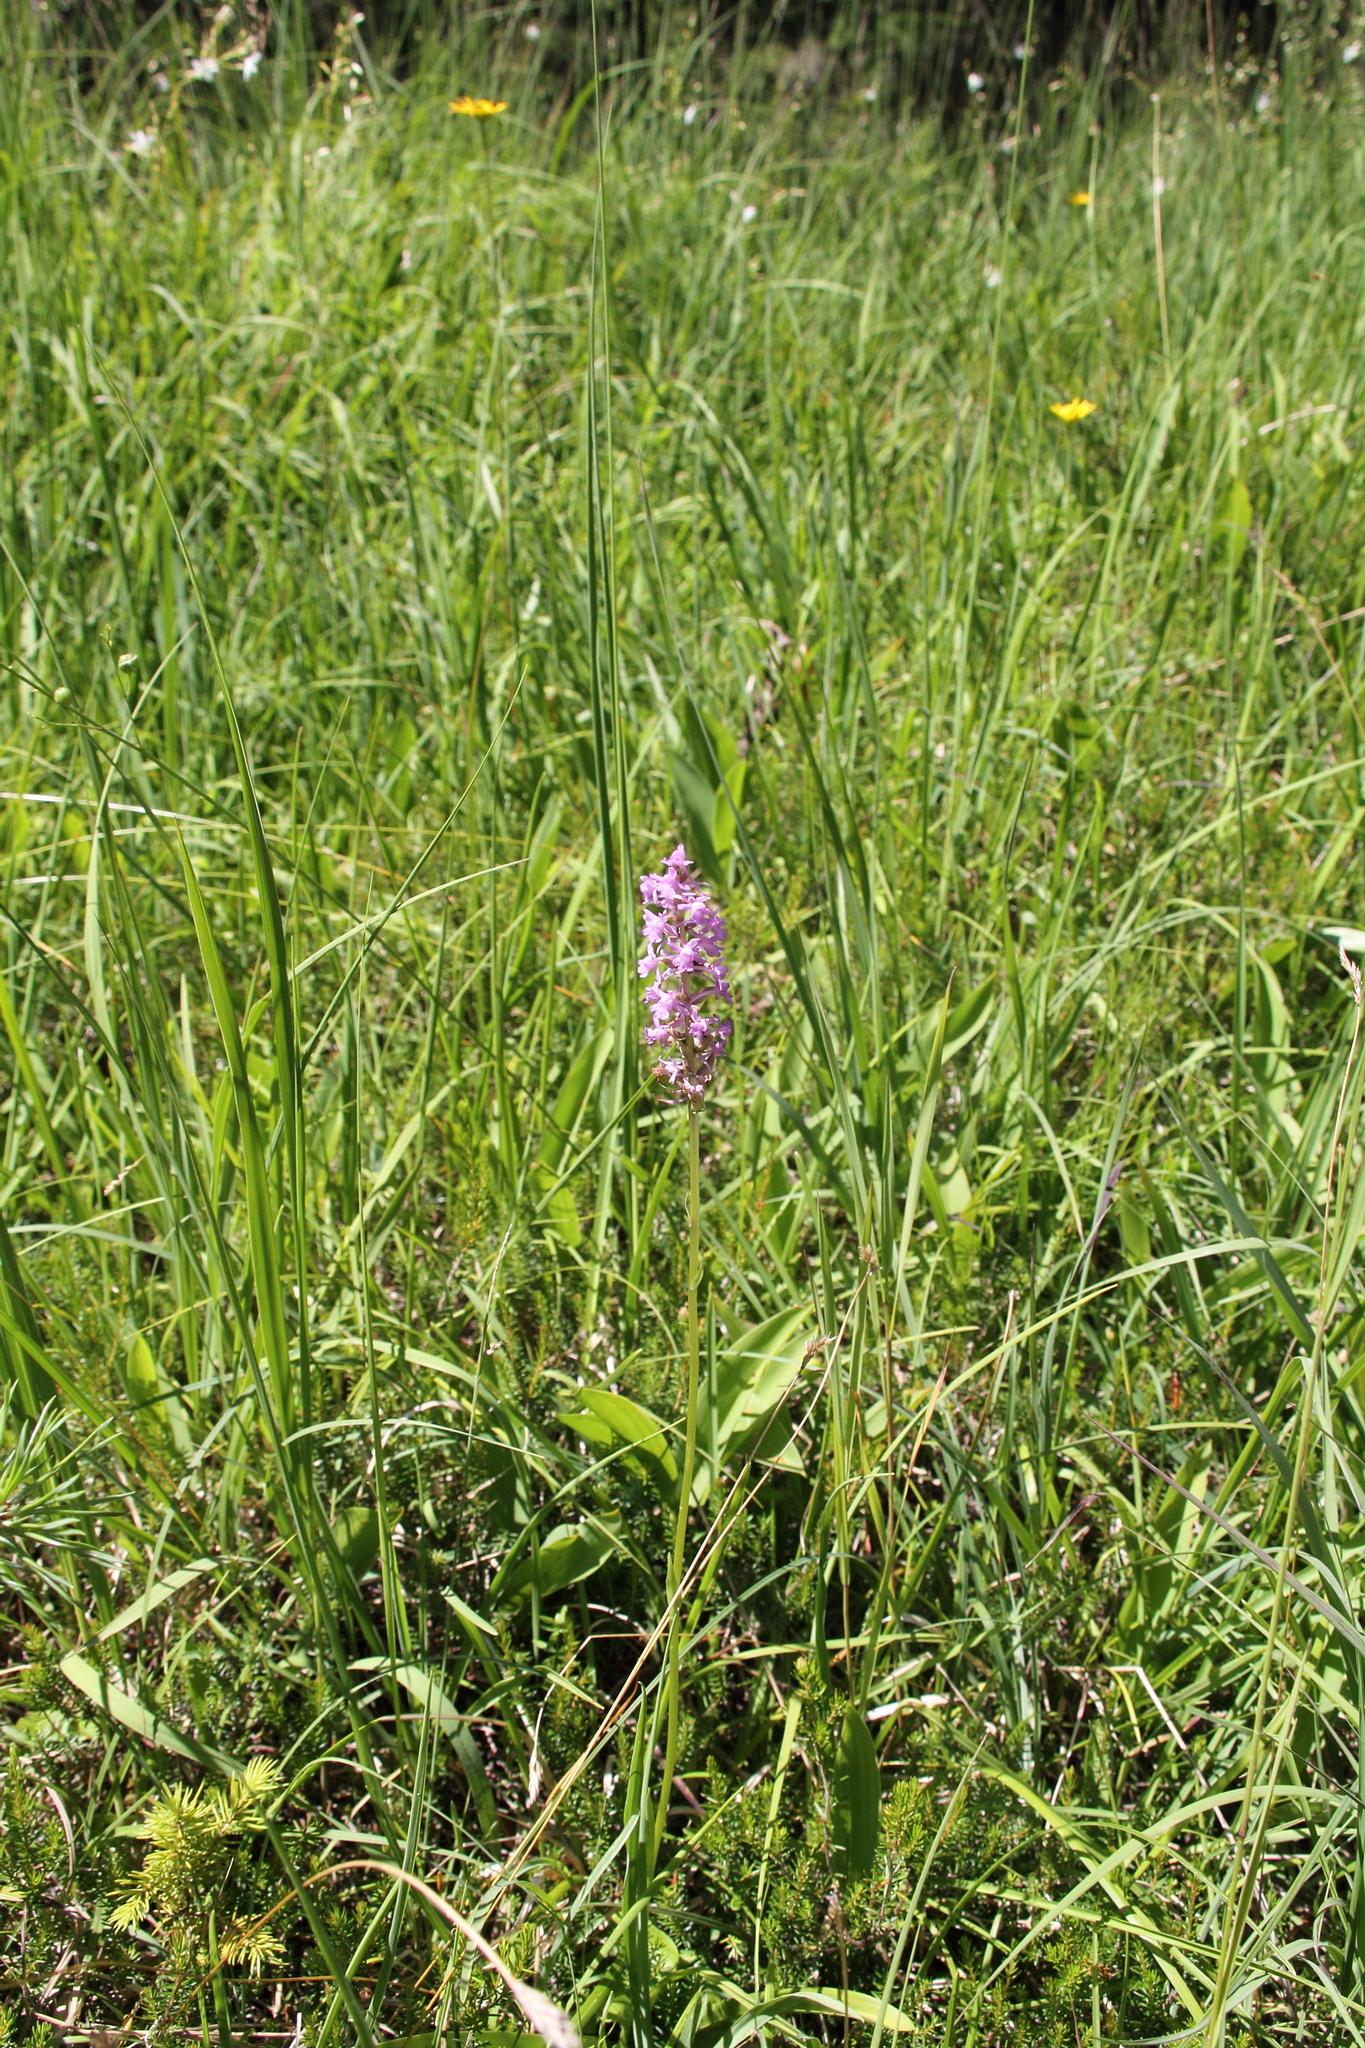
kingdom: Plantae
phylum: Tracheophyta
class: Liliopsida
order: Asparagales
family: Orchidaceae
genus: Gymnadenia
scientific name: Gymnadenia conopsea
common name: Fragrant orchid
